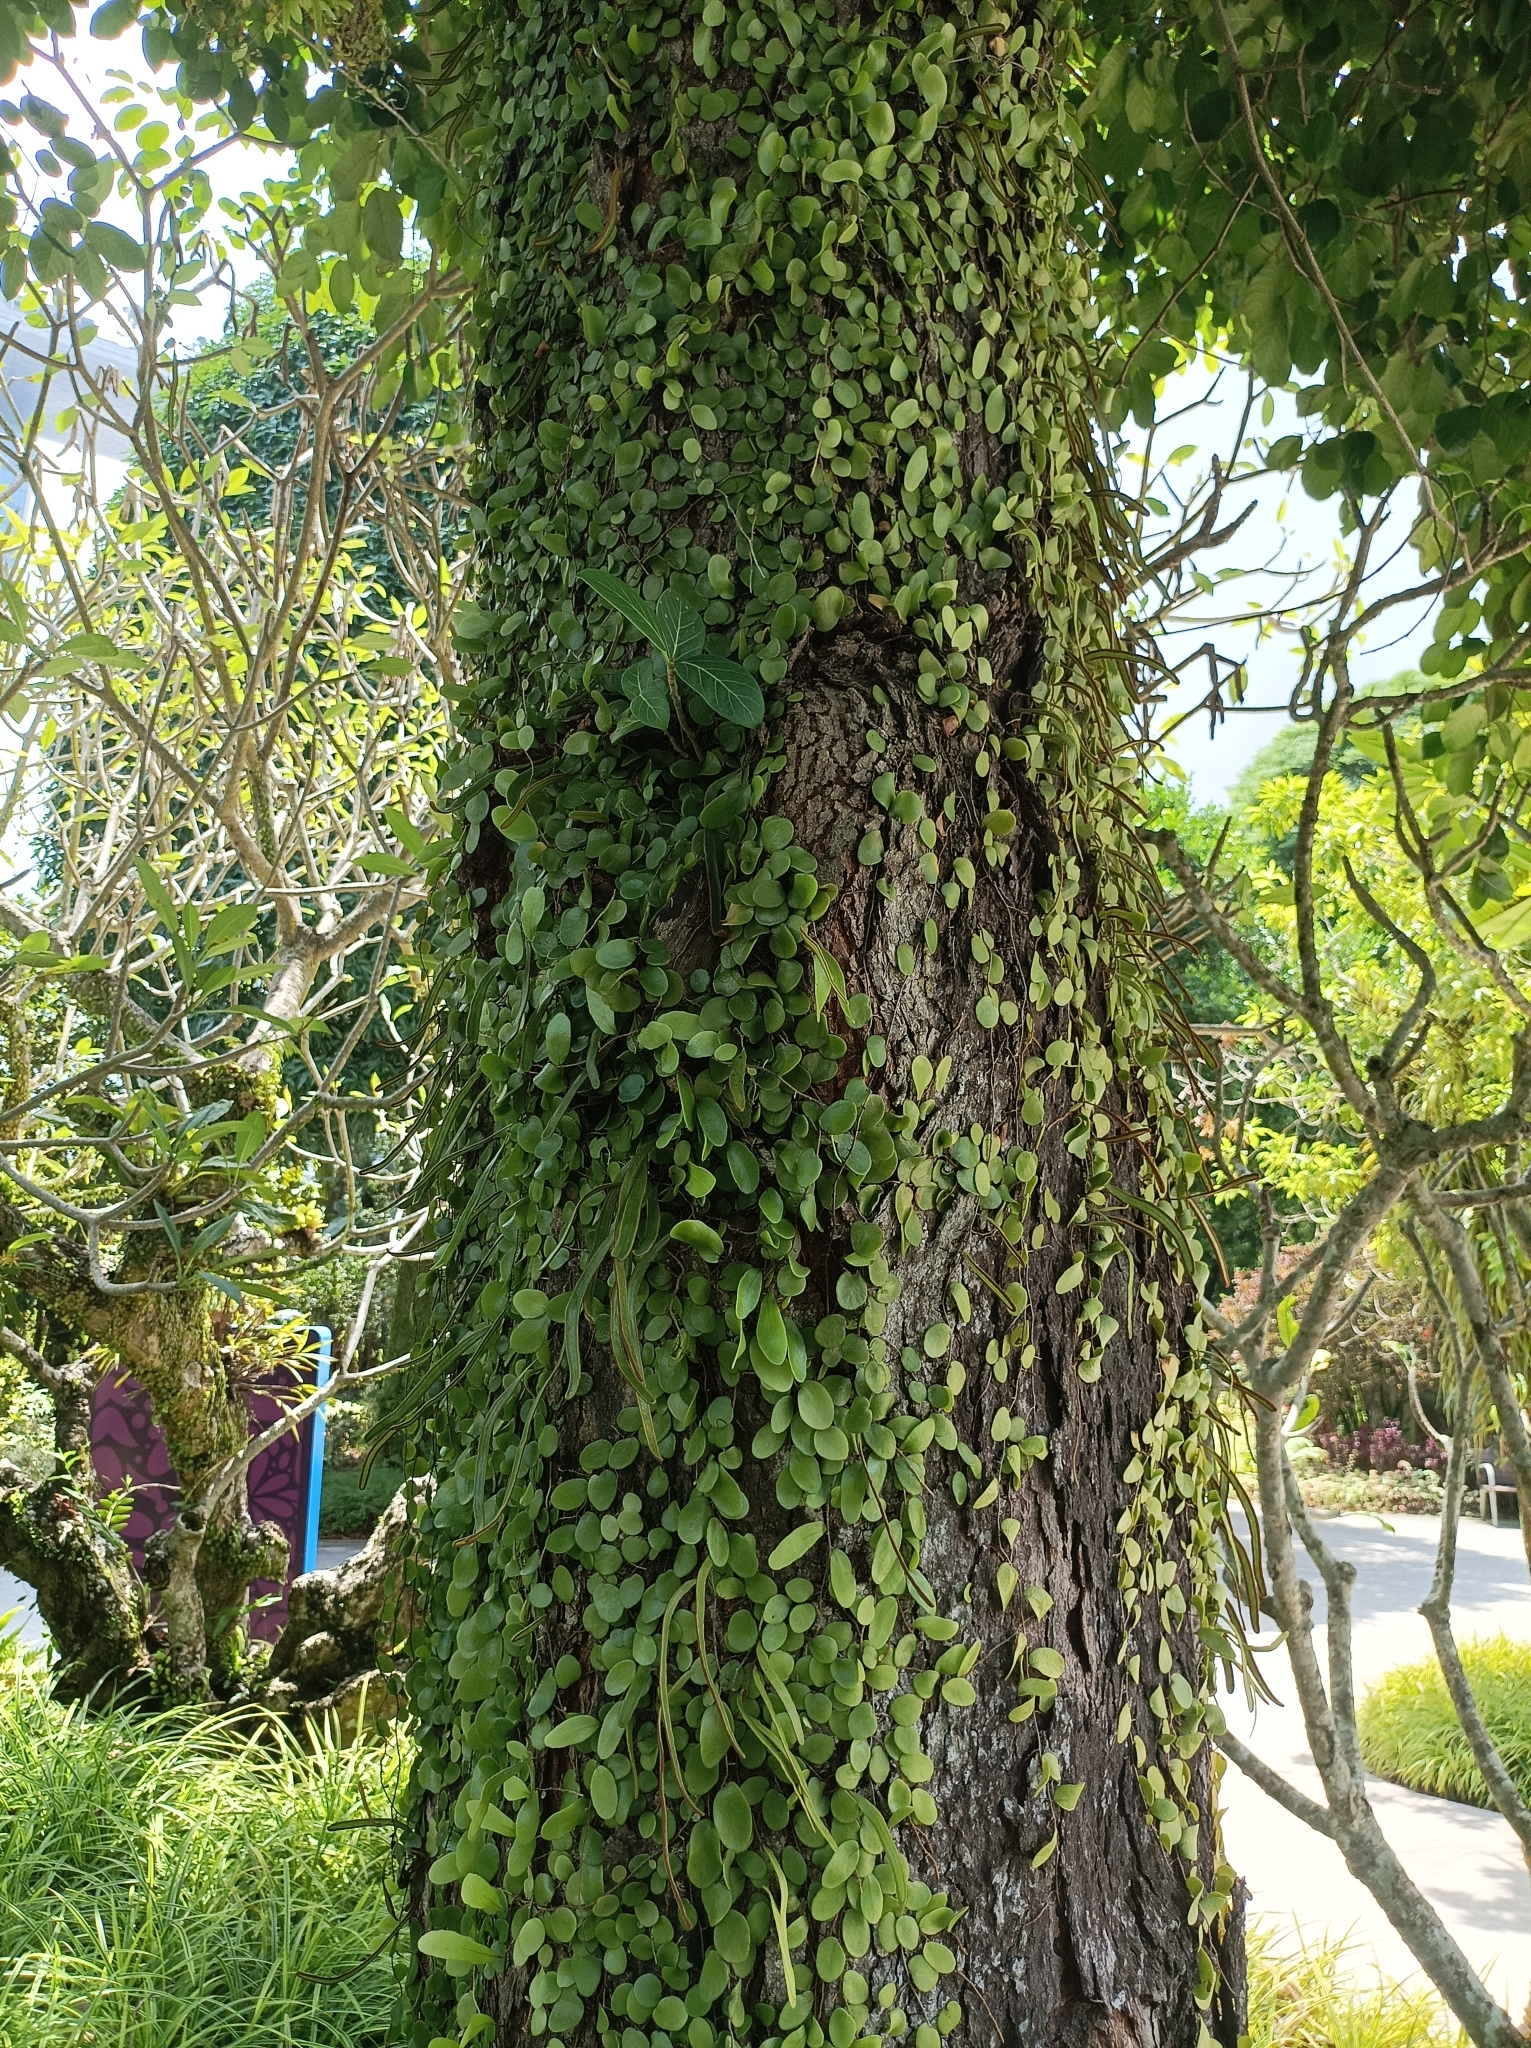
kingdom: Plantae
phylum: Tracheophyta
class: Polypodiopsida
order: Polypodiales
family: Polypodiaceae
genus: Pyrrosia
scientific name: Pyrrosia piloselloides
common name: Epiphytic creeping fern
